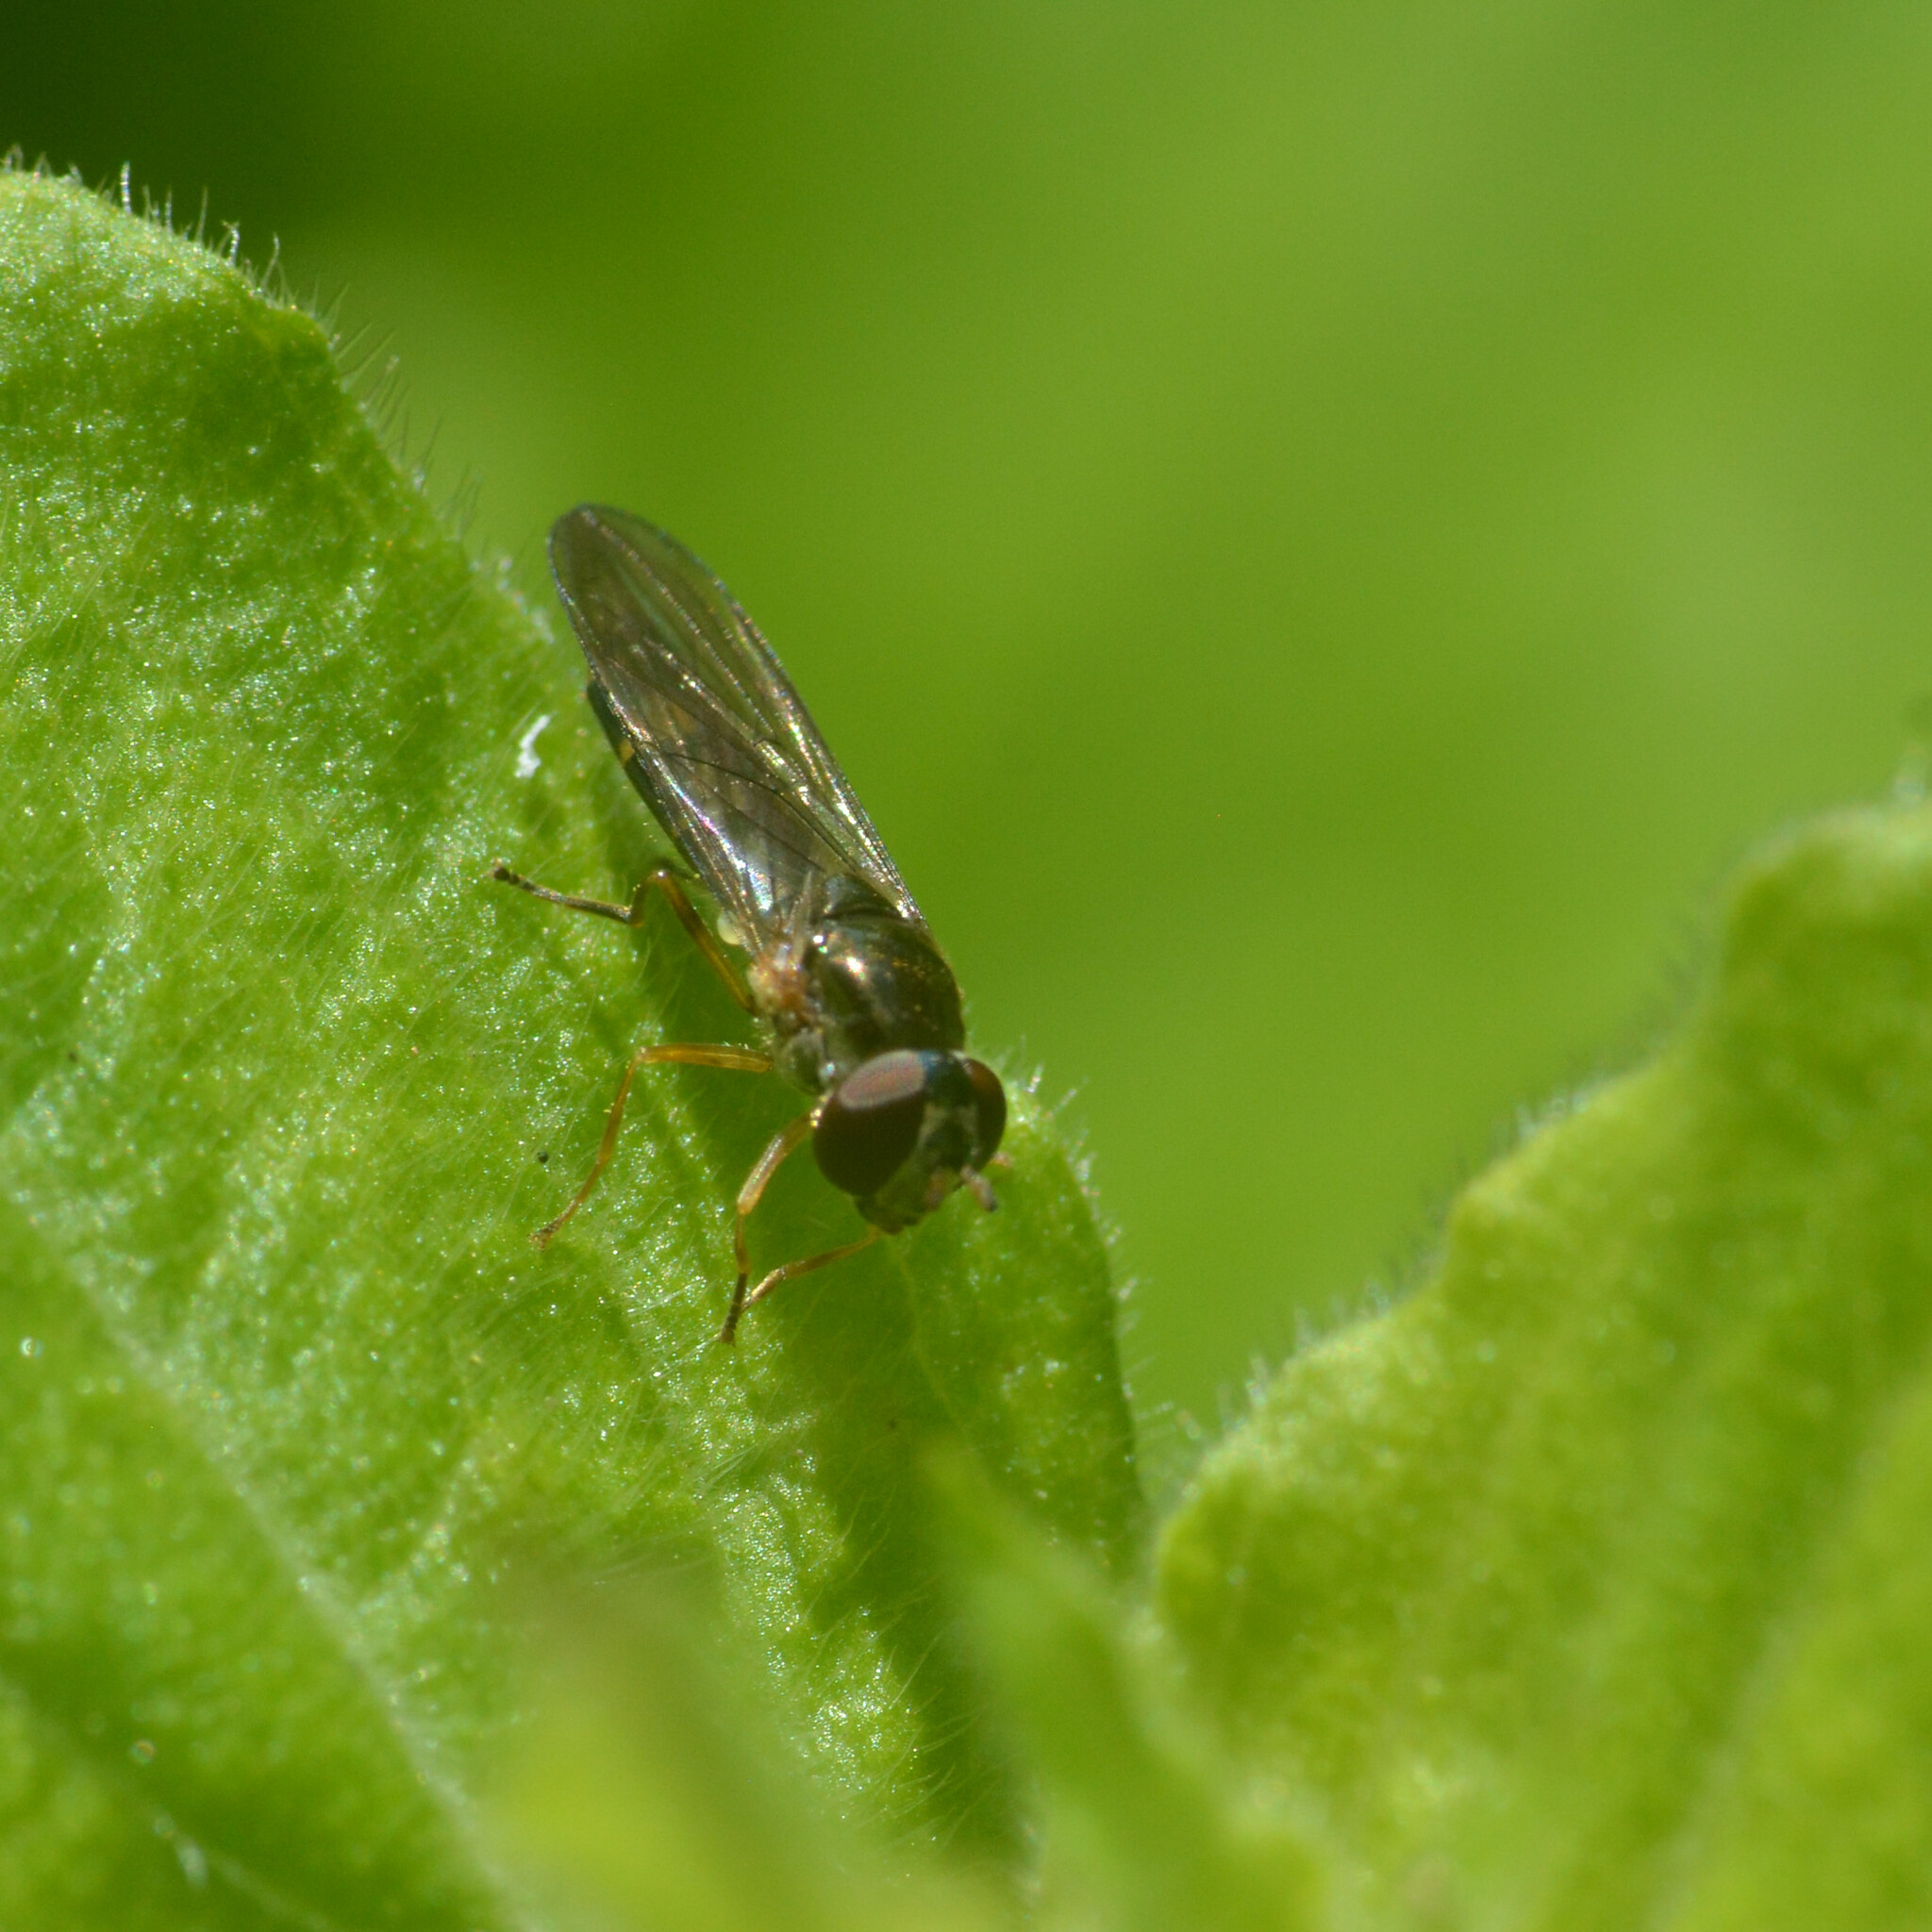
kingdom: Animalia
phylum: Arthropoda
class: Insecta
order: Diptera
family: Syrphidae
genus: Melanostoma
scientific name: Melanostoma scalare
